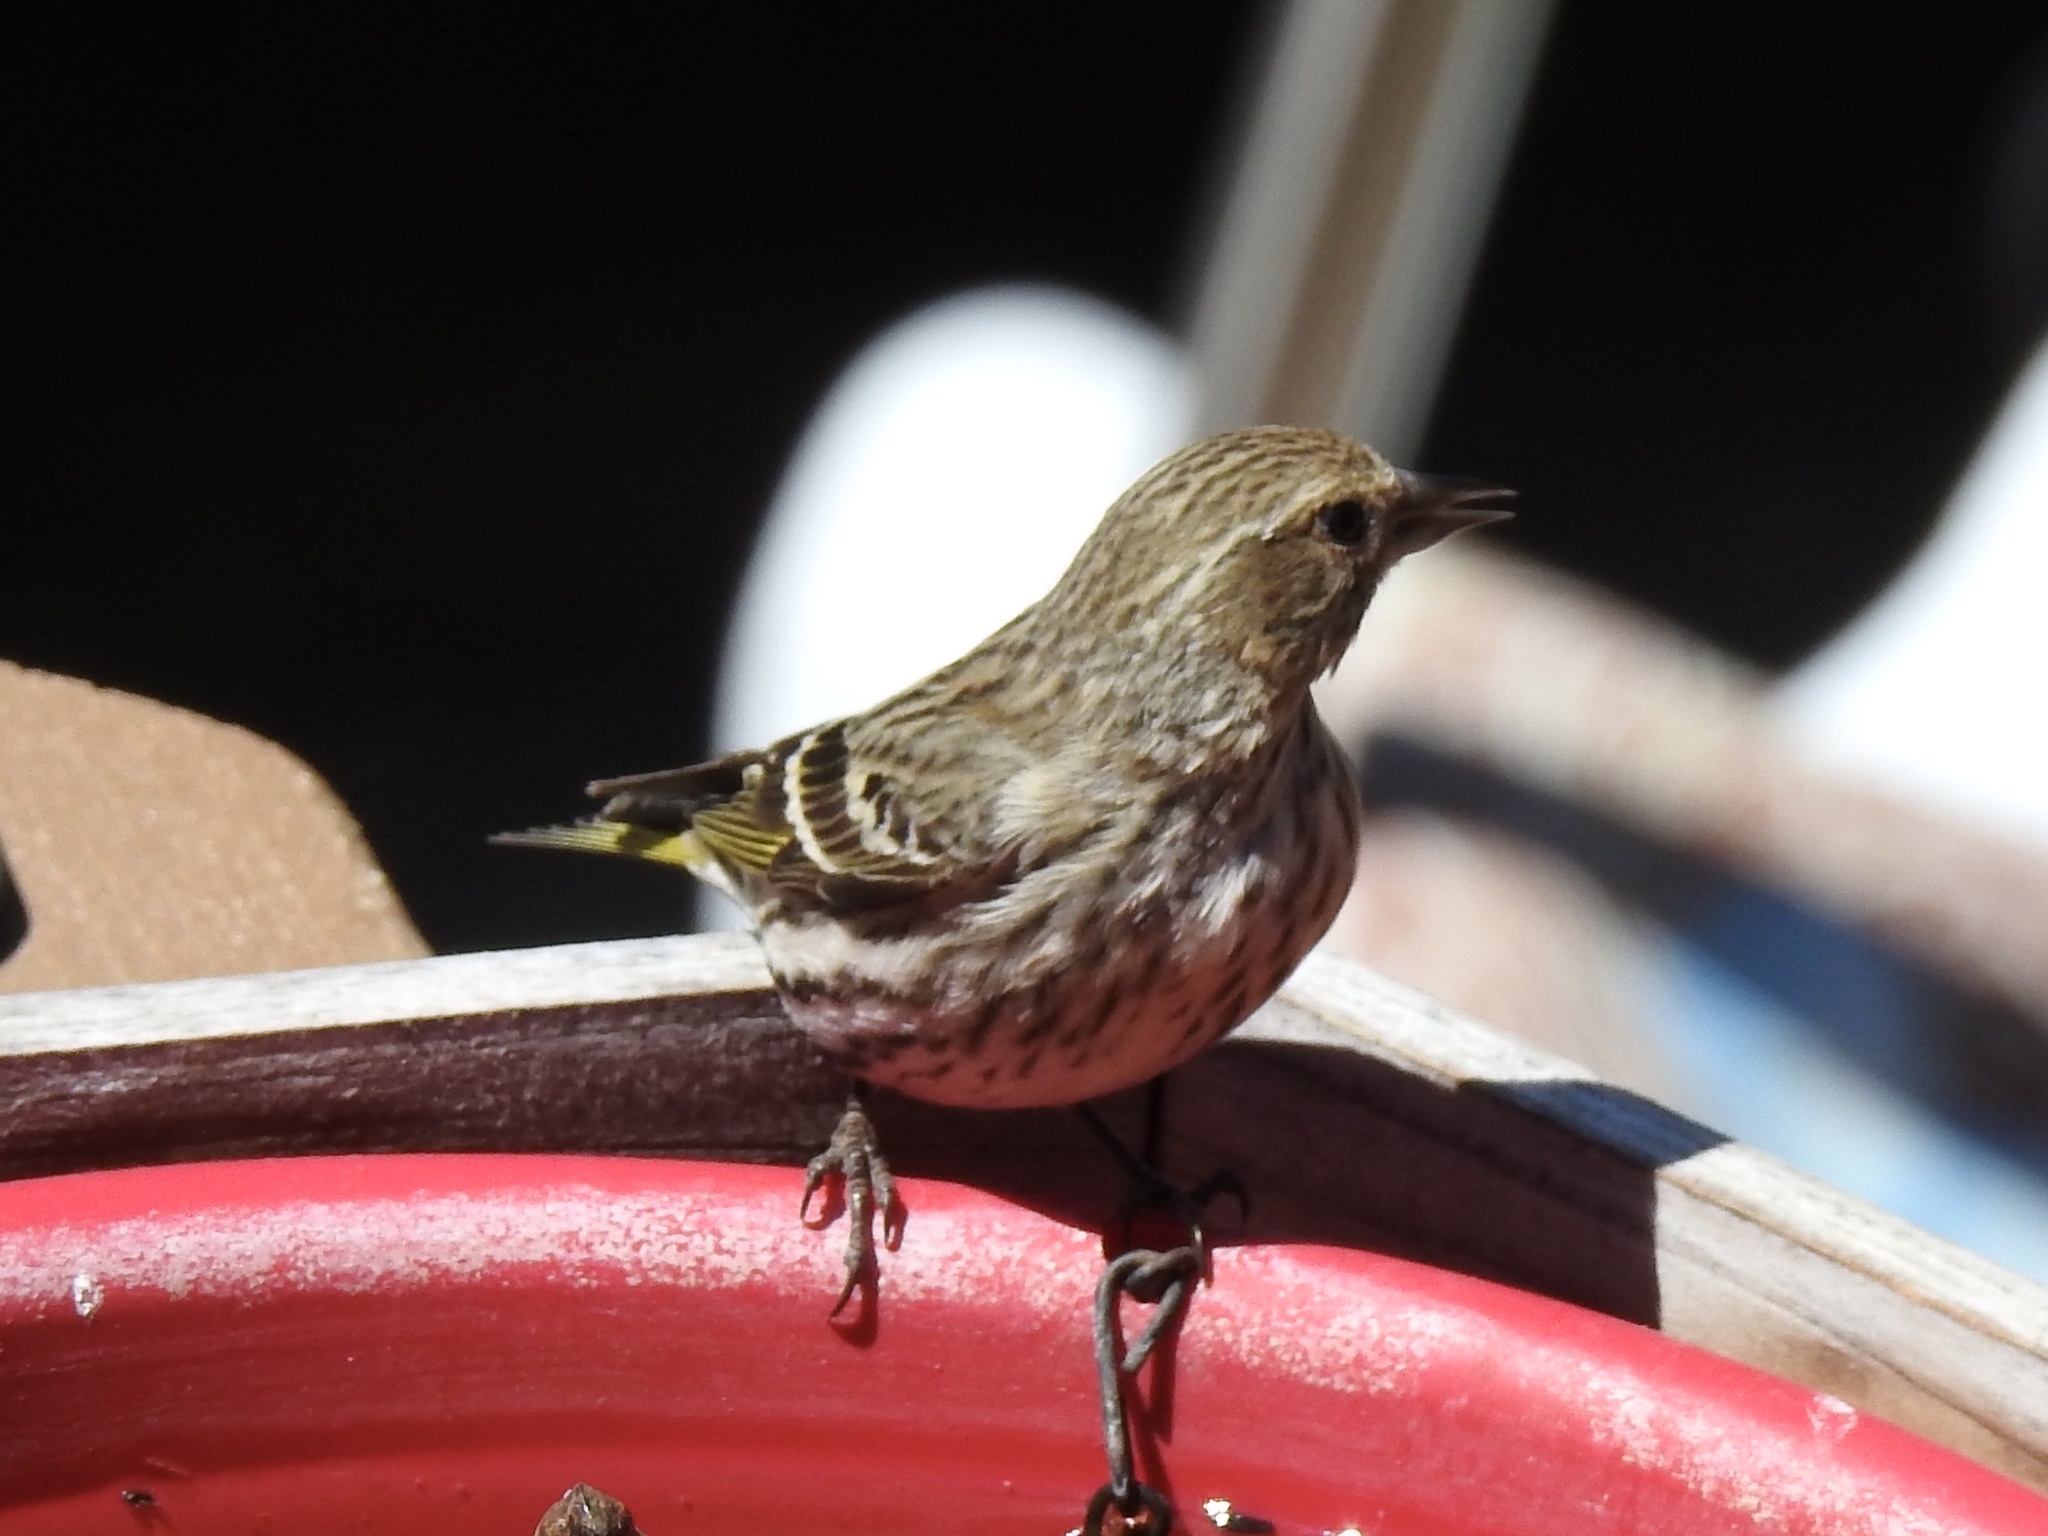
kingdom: Animalia
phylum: Chordata
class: Aves
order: Passeriformes
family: Fringillidae
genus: Spinus
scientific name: Spinus pinus
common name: Pine siskin
